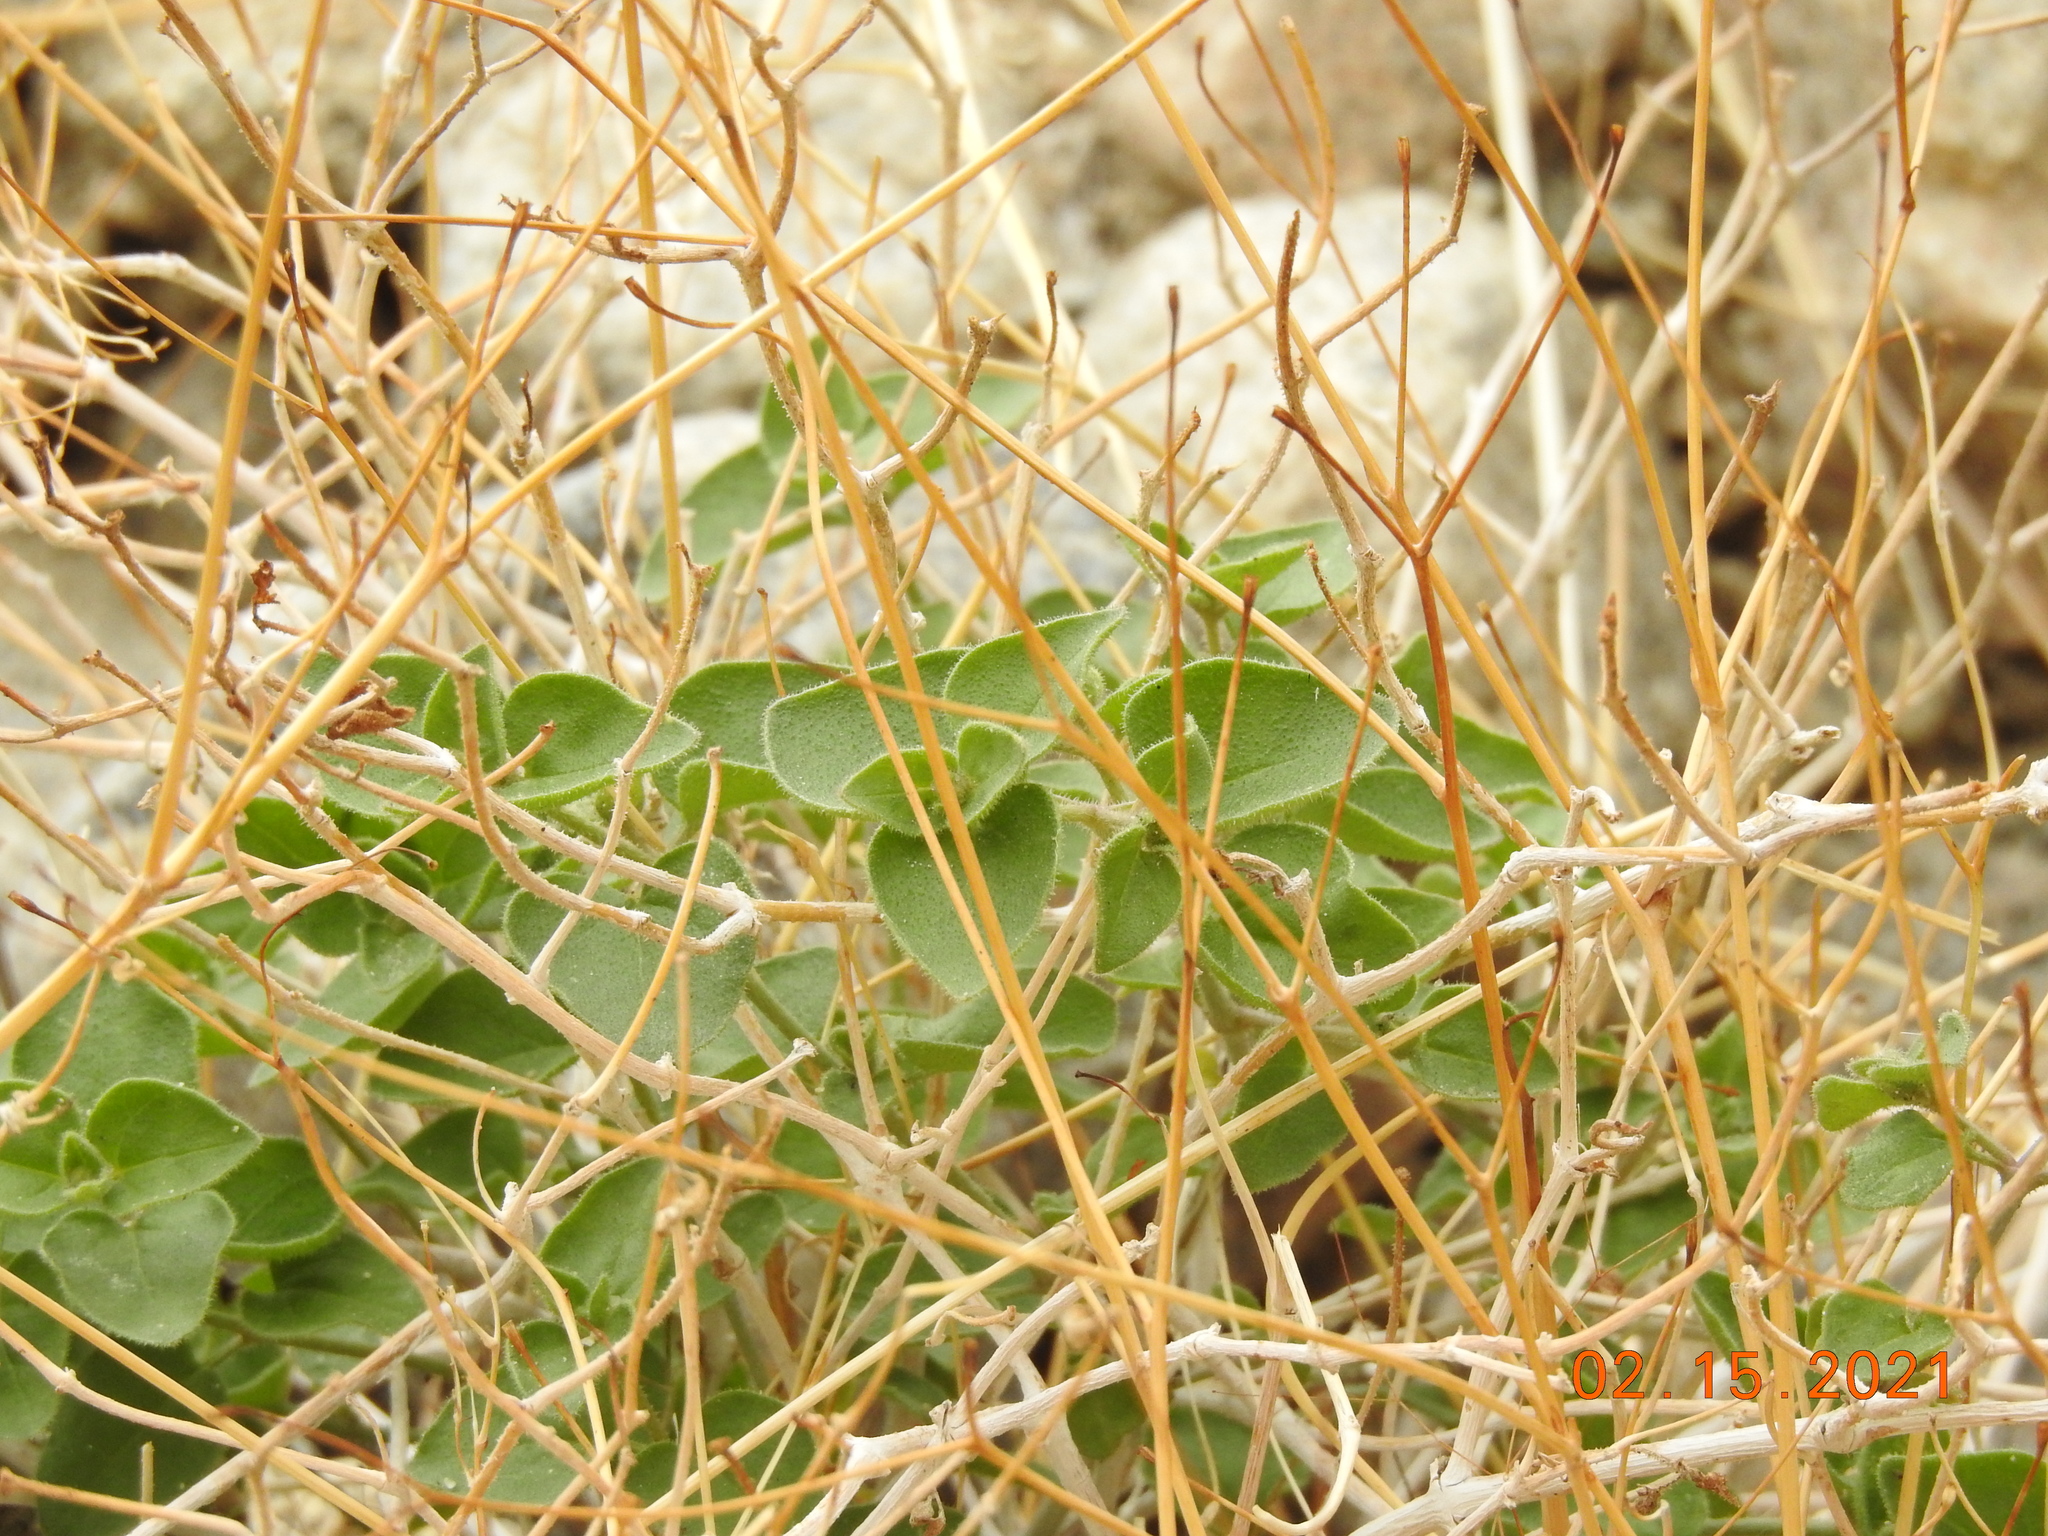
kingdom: Plantae
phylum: Tracheophyta
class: Magnoliopsida
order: Caryophyllales
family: Nyctaginaceae
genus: Mirabilis
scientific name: Mirabilis laevis
